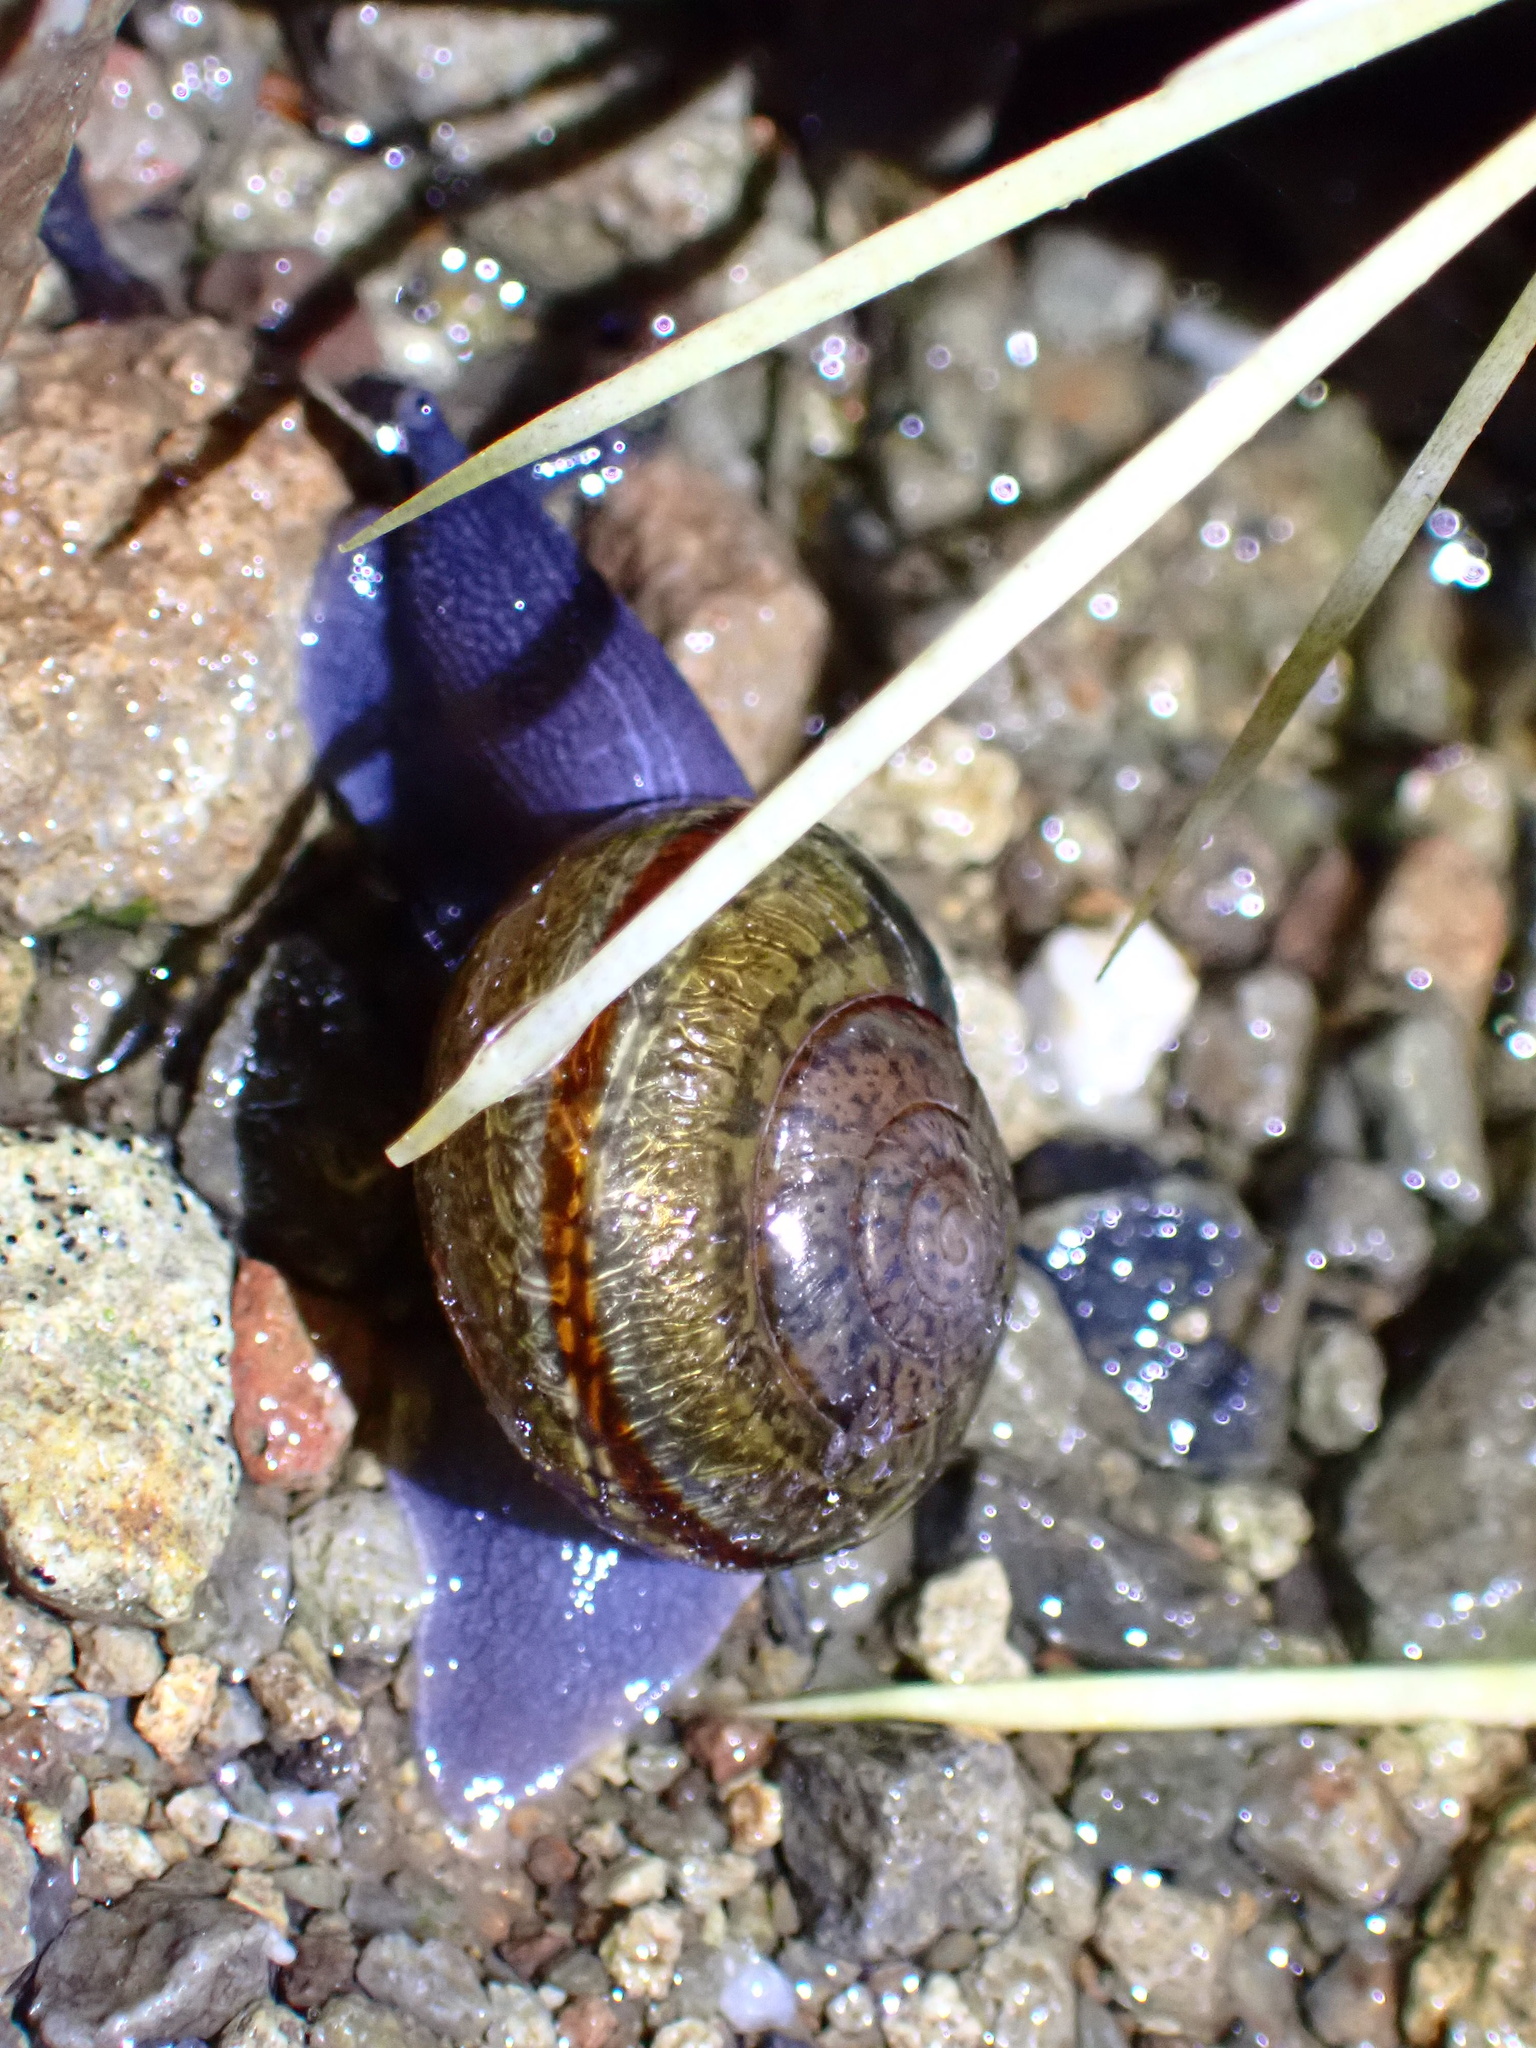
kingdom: Animalia
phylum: Mollusca
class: Gastropoda
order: Stylommatophora
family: Xanthonychidae
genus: Helminthoglypta
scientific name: Helminthoglypta tudiculata
